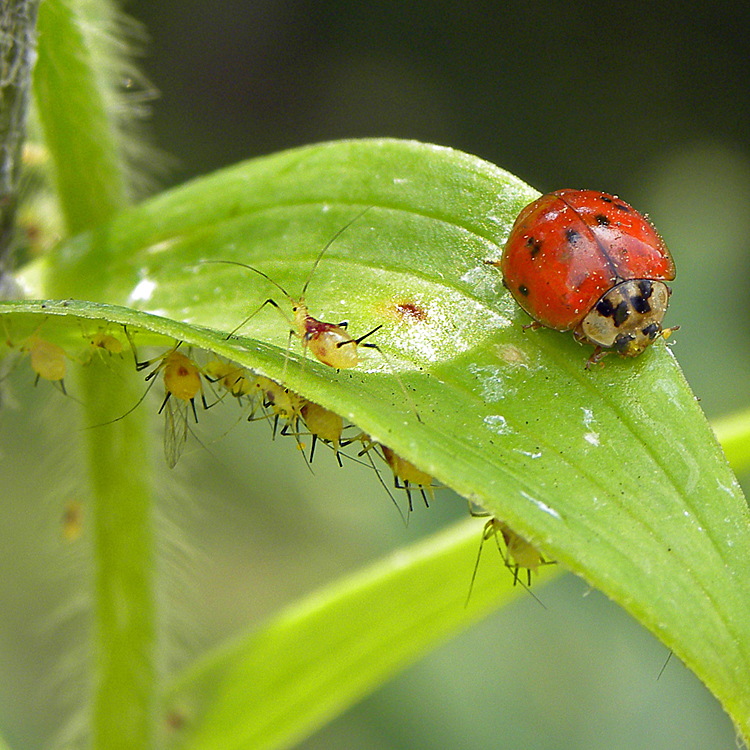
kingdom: Animalia
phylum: Arthropoda
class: Insecta
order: Hemiptera
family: Aphididae
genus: Macrosiphum
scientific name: Macrosiphum lilii
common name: Purplespotted lily aphid
